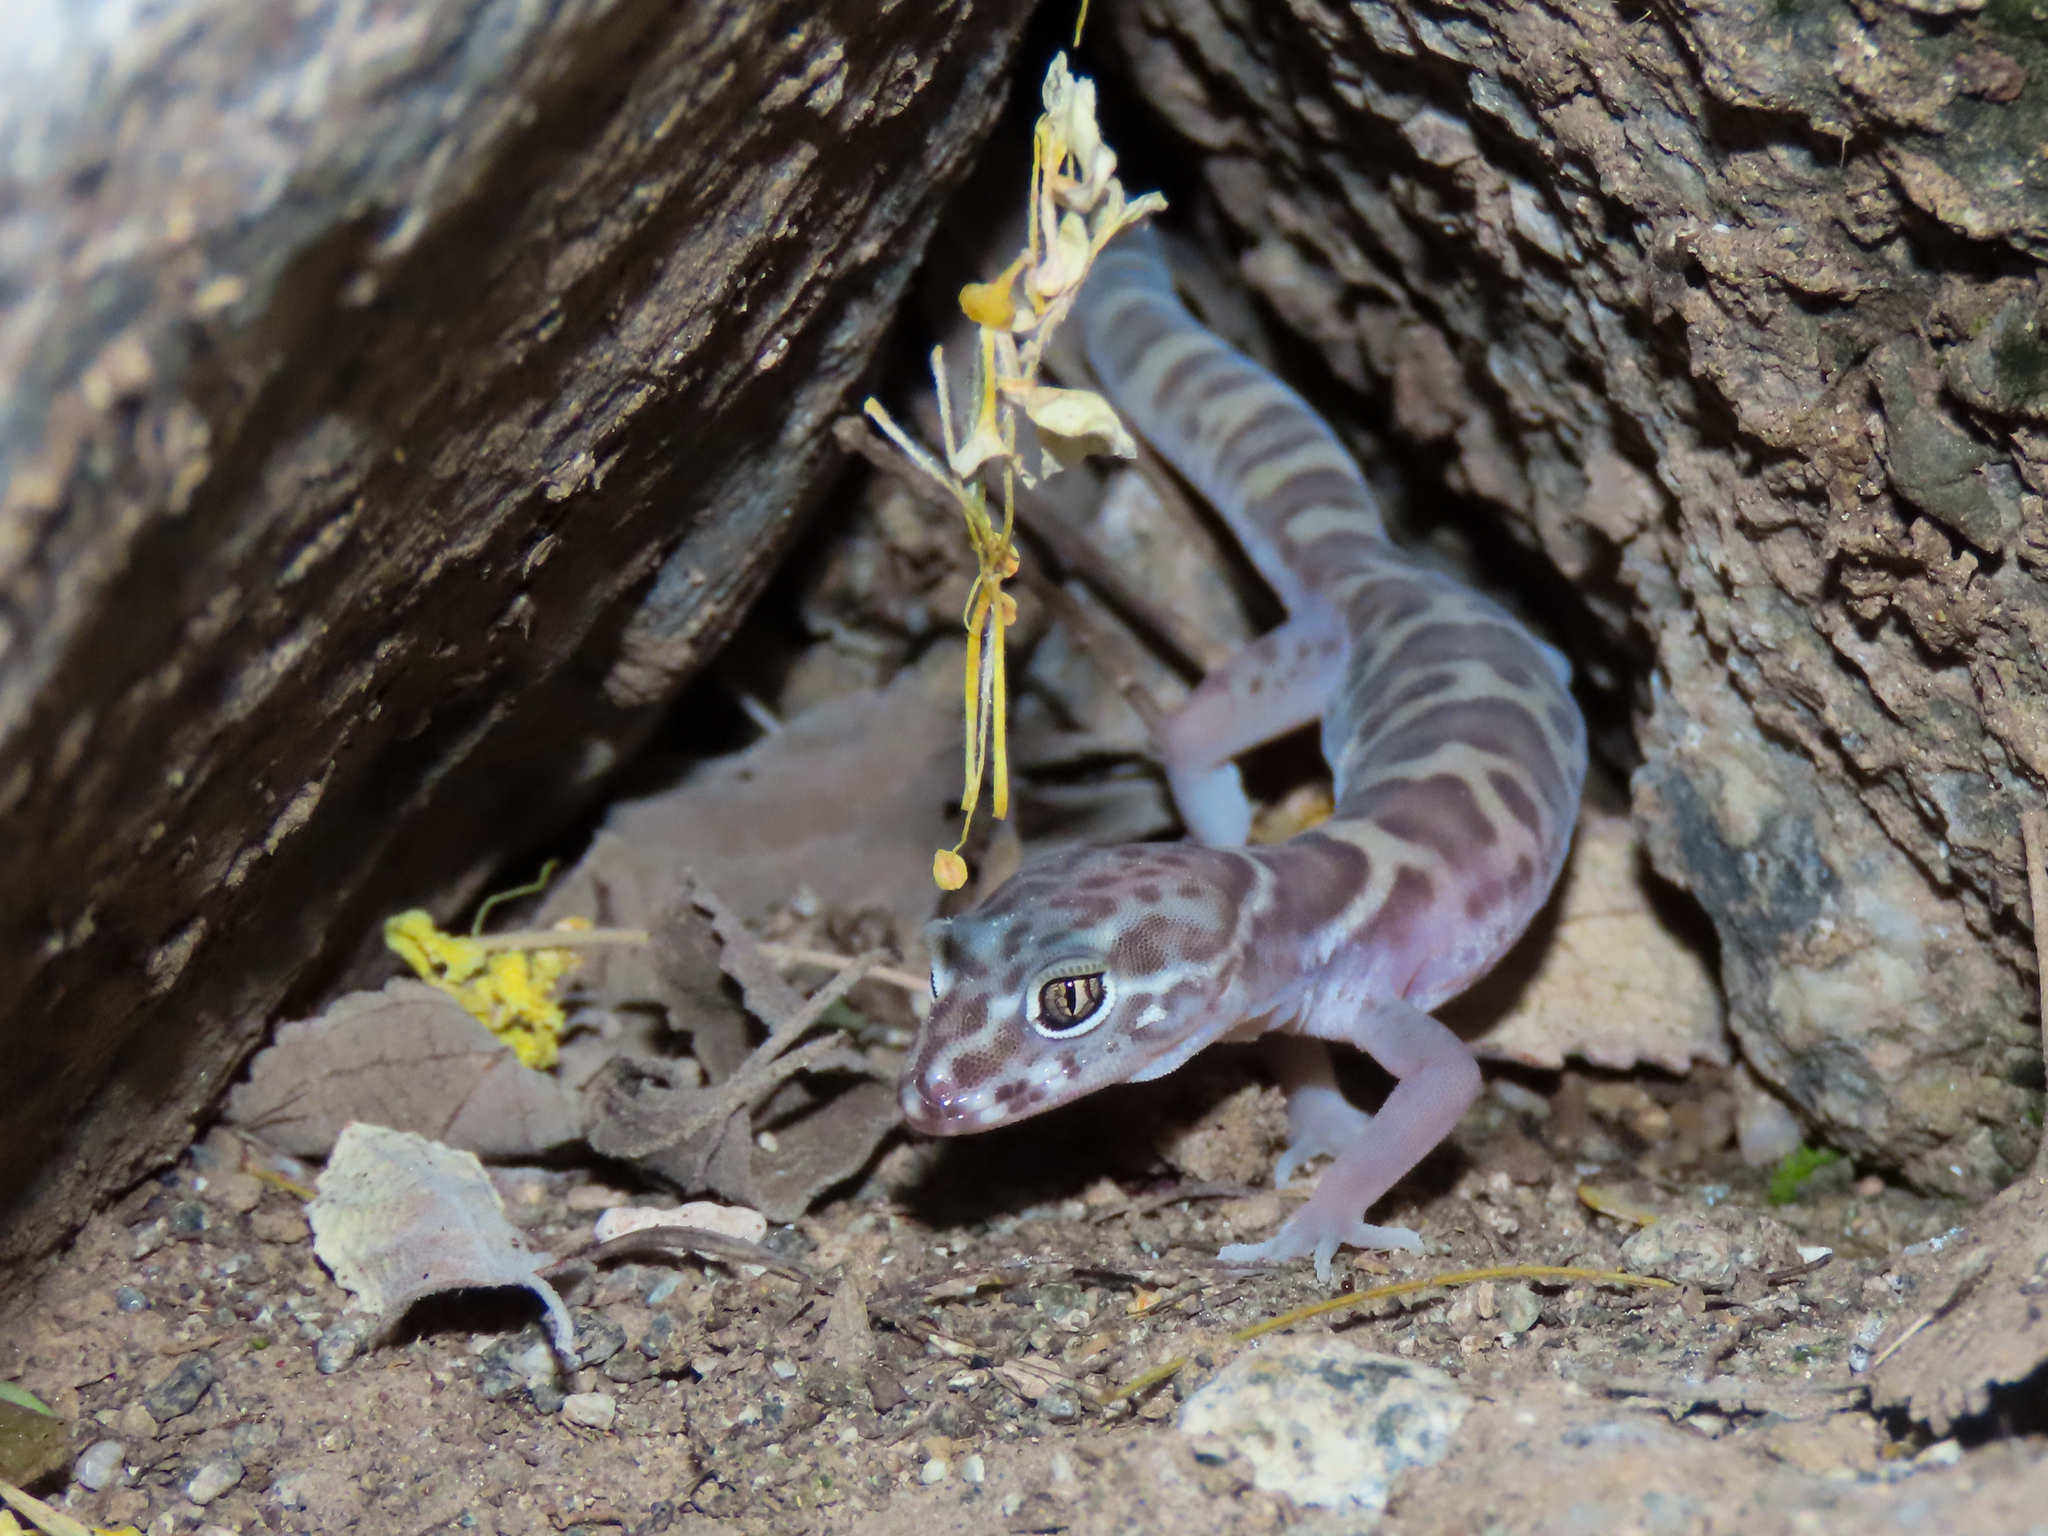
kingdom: Animalia
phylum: Chordata
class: Squamata
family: Eublepharidae
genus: Coleonyx
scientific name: Coleonyx variegatus
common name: Western banded gecko
